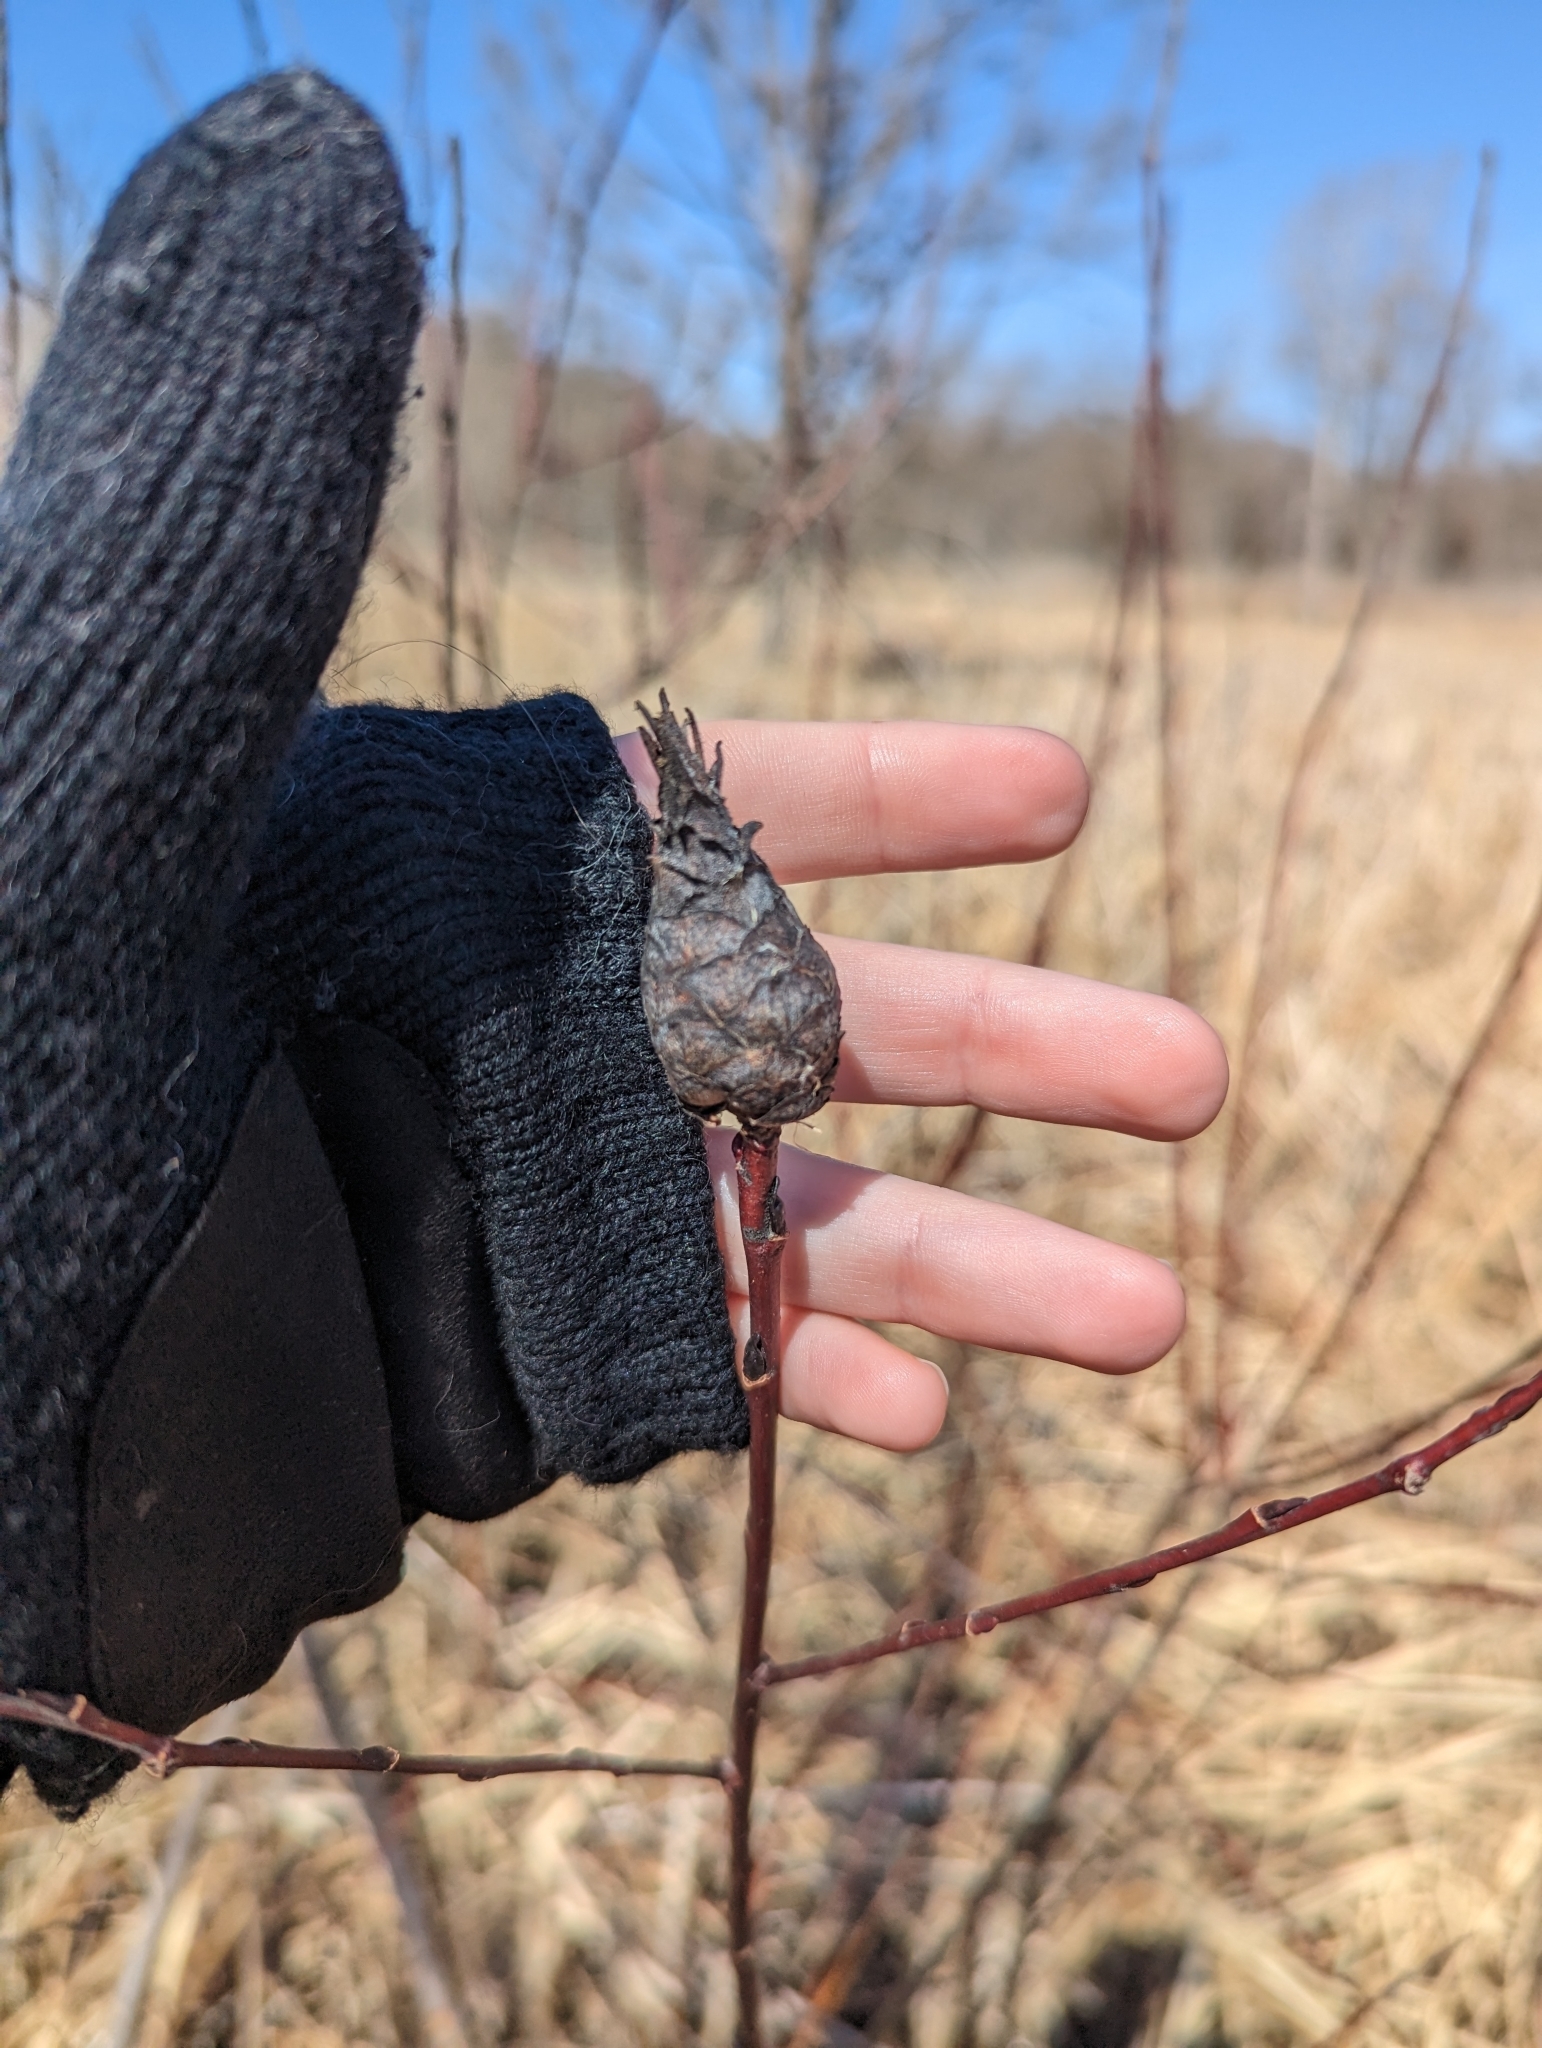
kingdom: Animalia
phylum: Arthropoda
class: Insecta
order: Diptera
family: Cecidomyiidae
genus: Rabdophaga
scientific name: Rabdophaga strobiloides
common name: Willow pinecone gall midge
